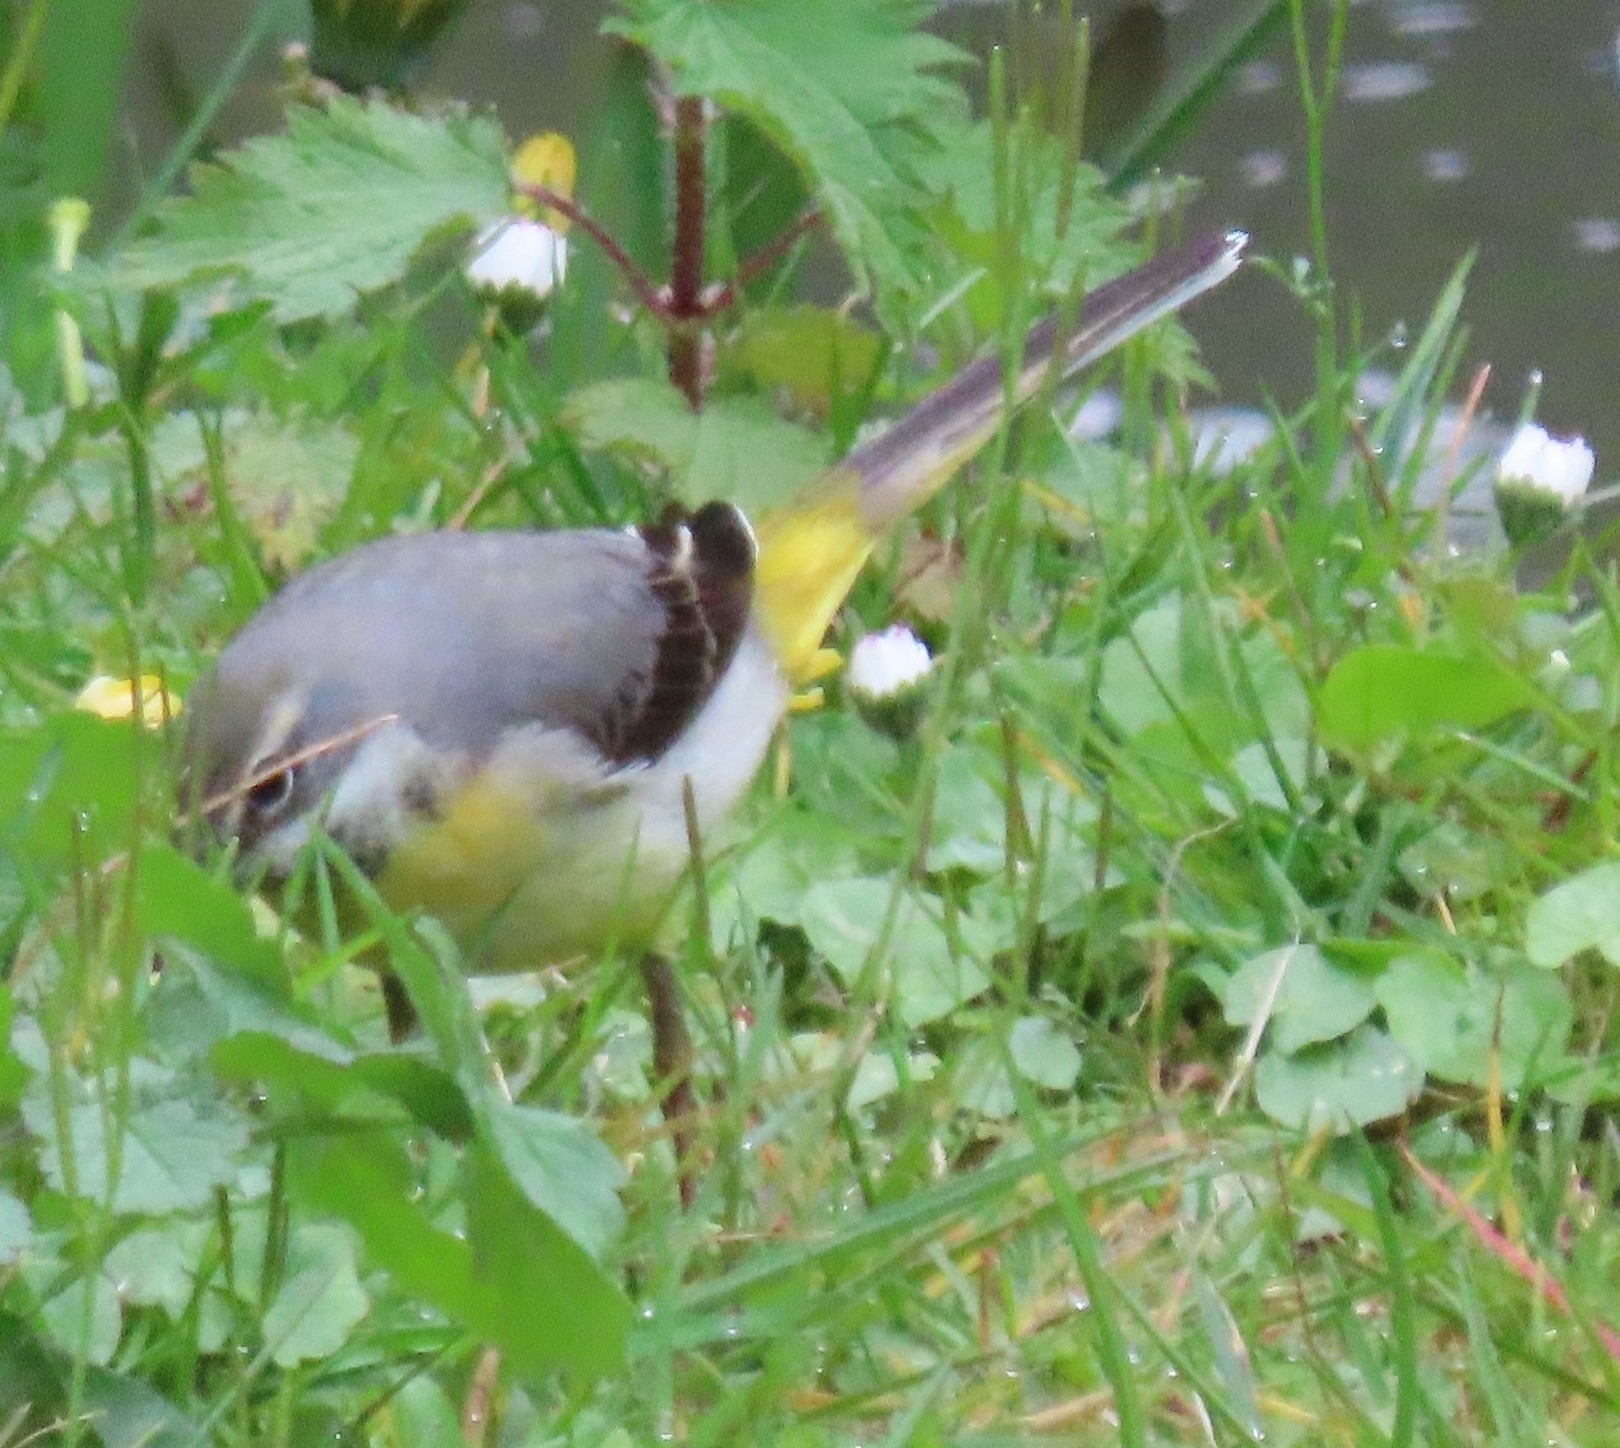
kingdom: Animalia
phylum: Chordata
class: Aves
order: Passeriformes
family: Motacillidae
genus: Motacilla
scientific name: Motacilla cinerea
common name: Grey wagtail
